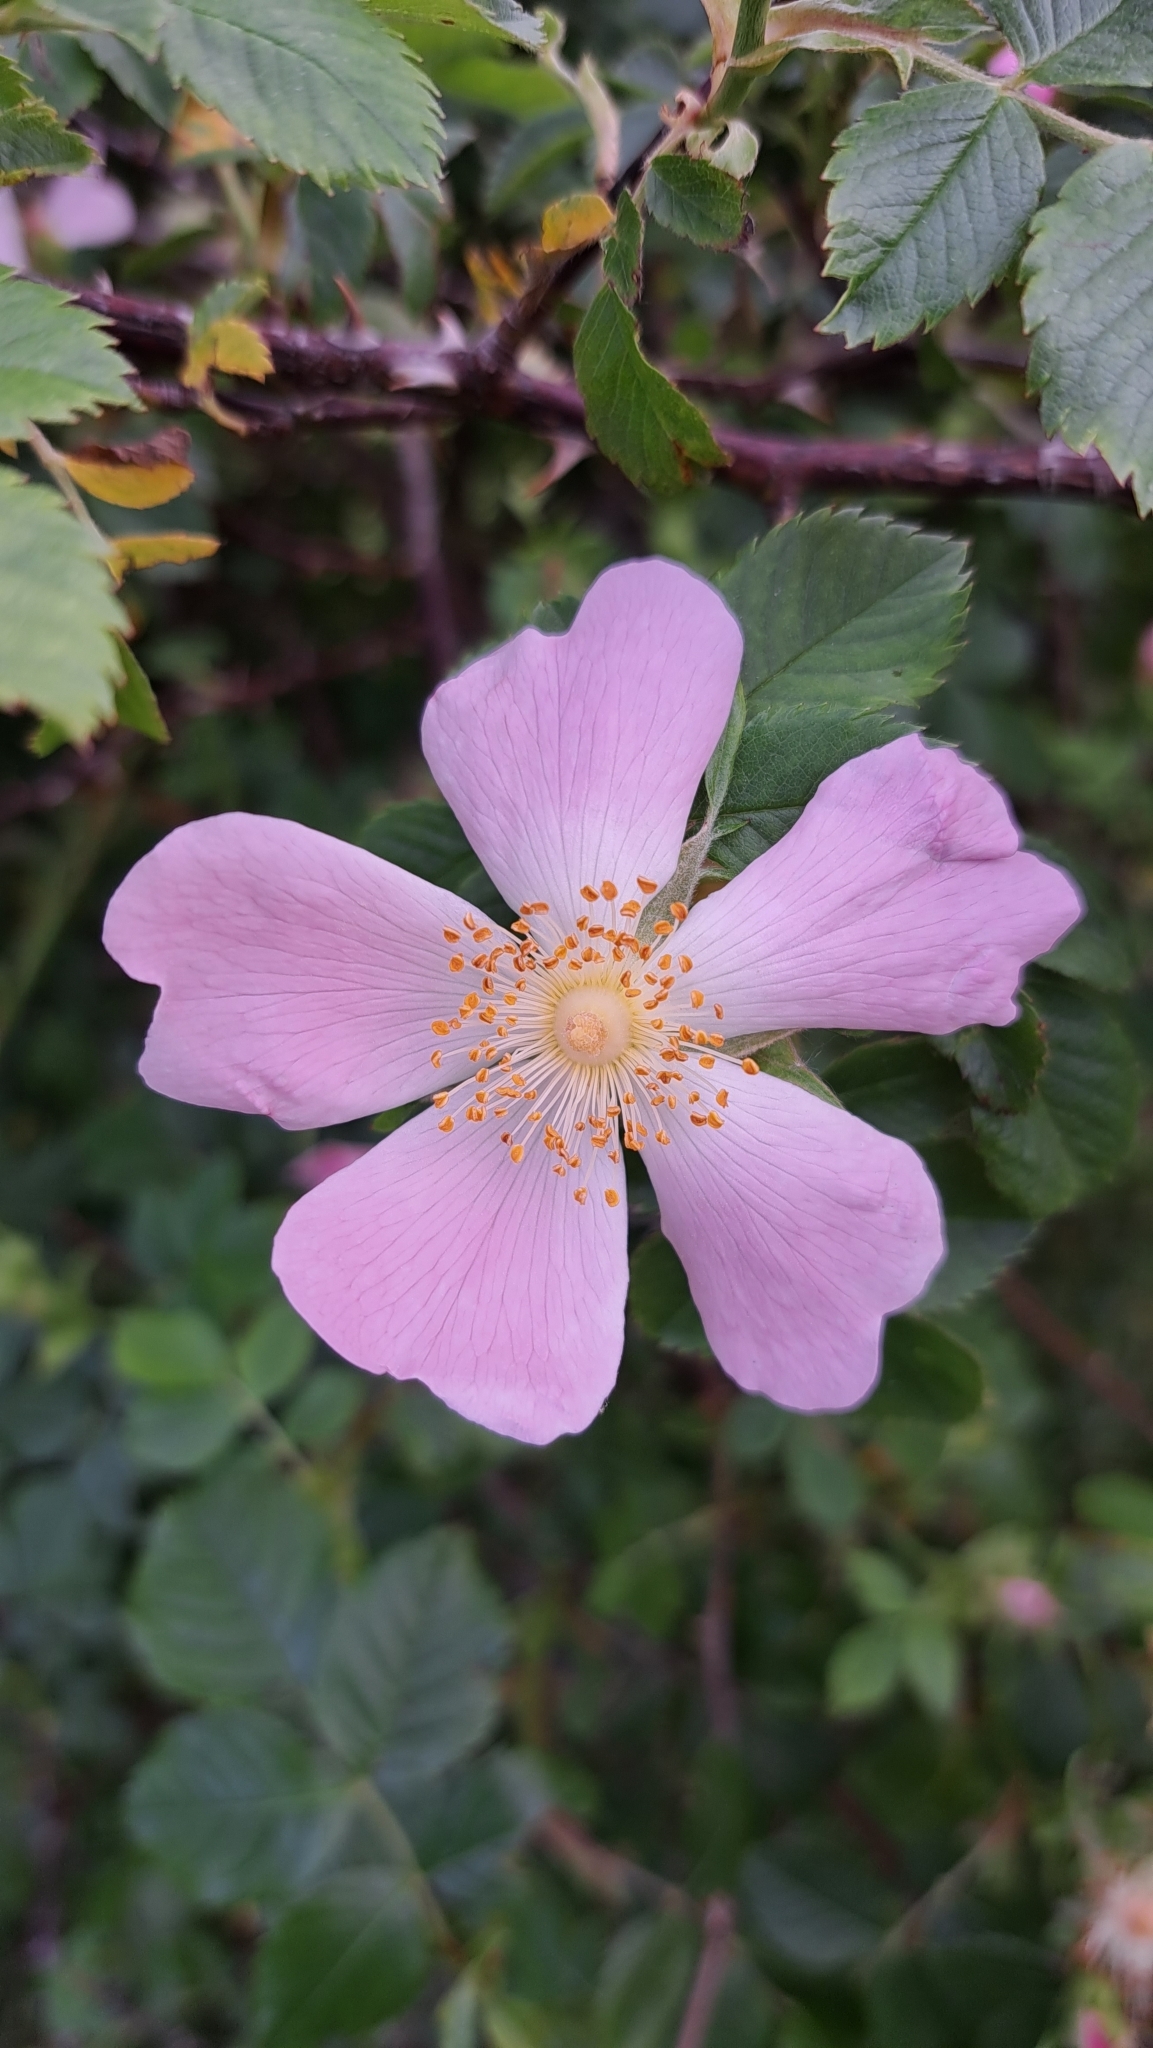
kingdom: Plantae
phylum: Tracheophyta
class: Magnoliopsida
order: Rosales
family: Rosaceae
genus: Rosa
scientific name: Rosa canina
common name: Dog rose
